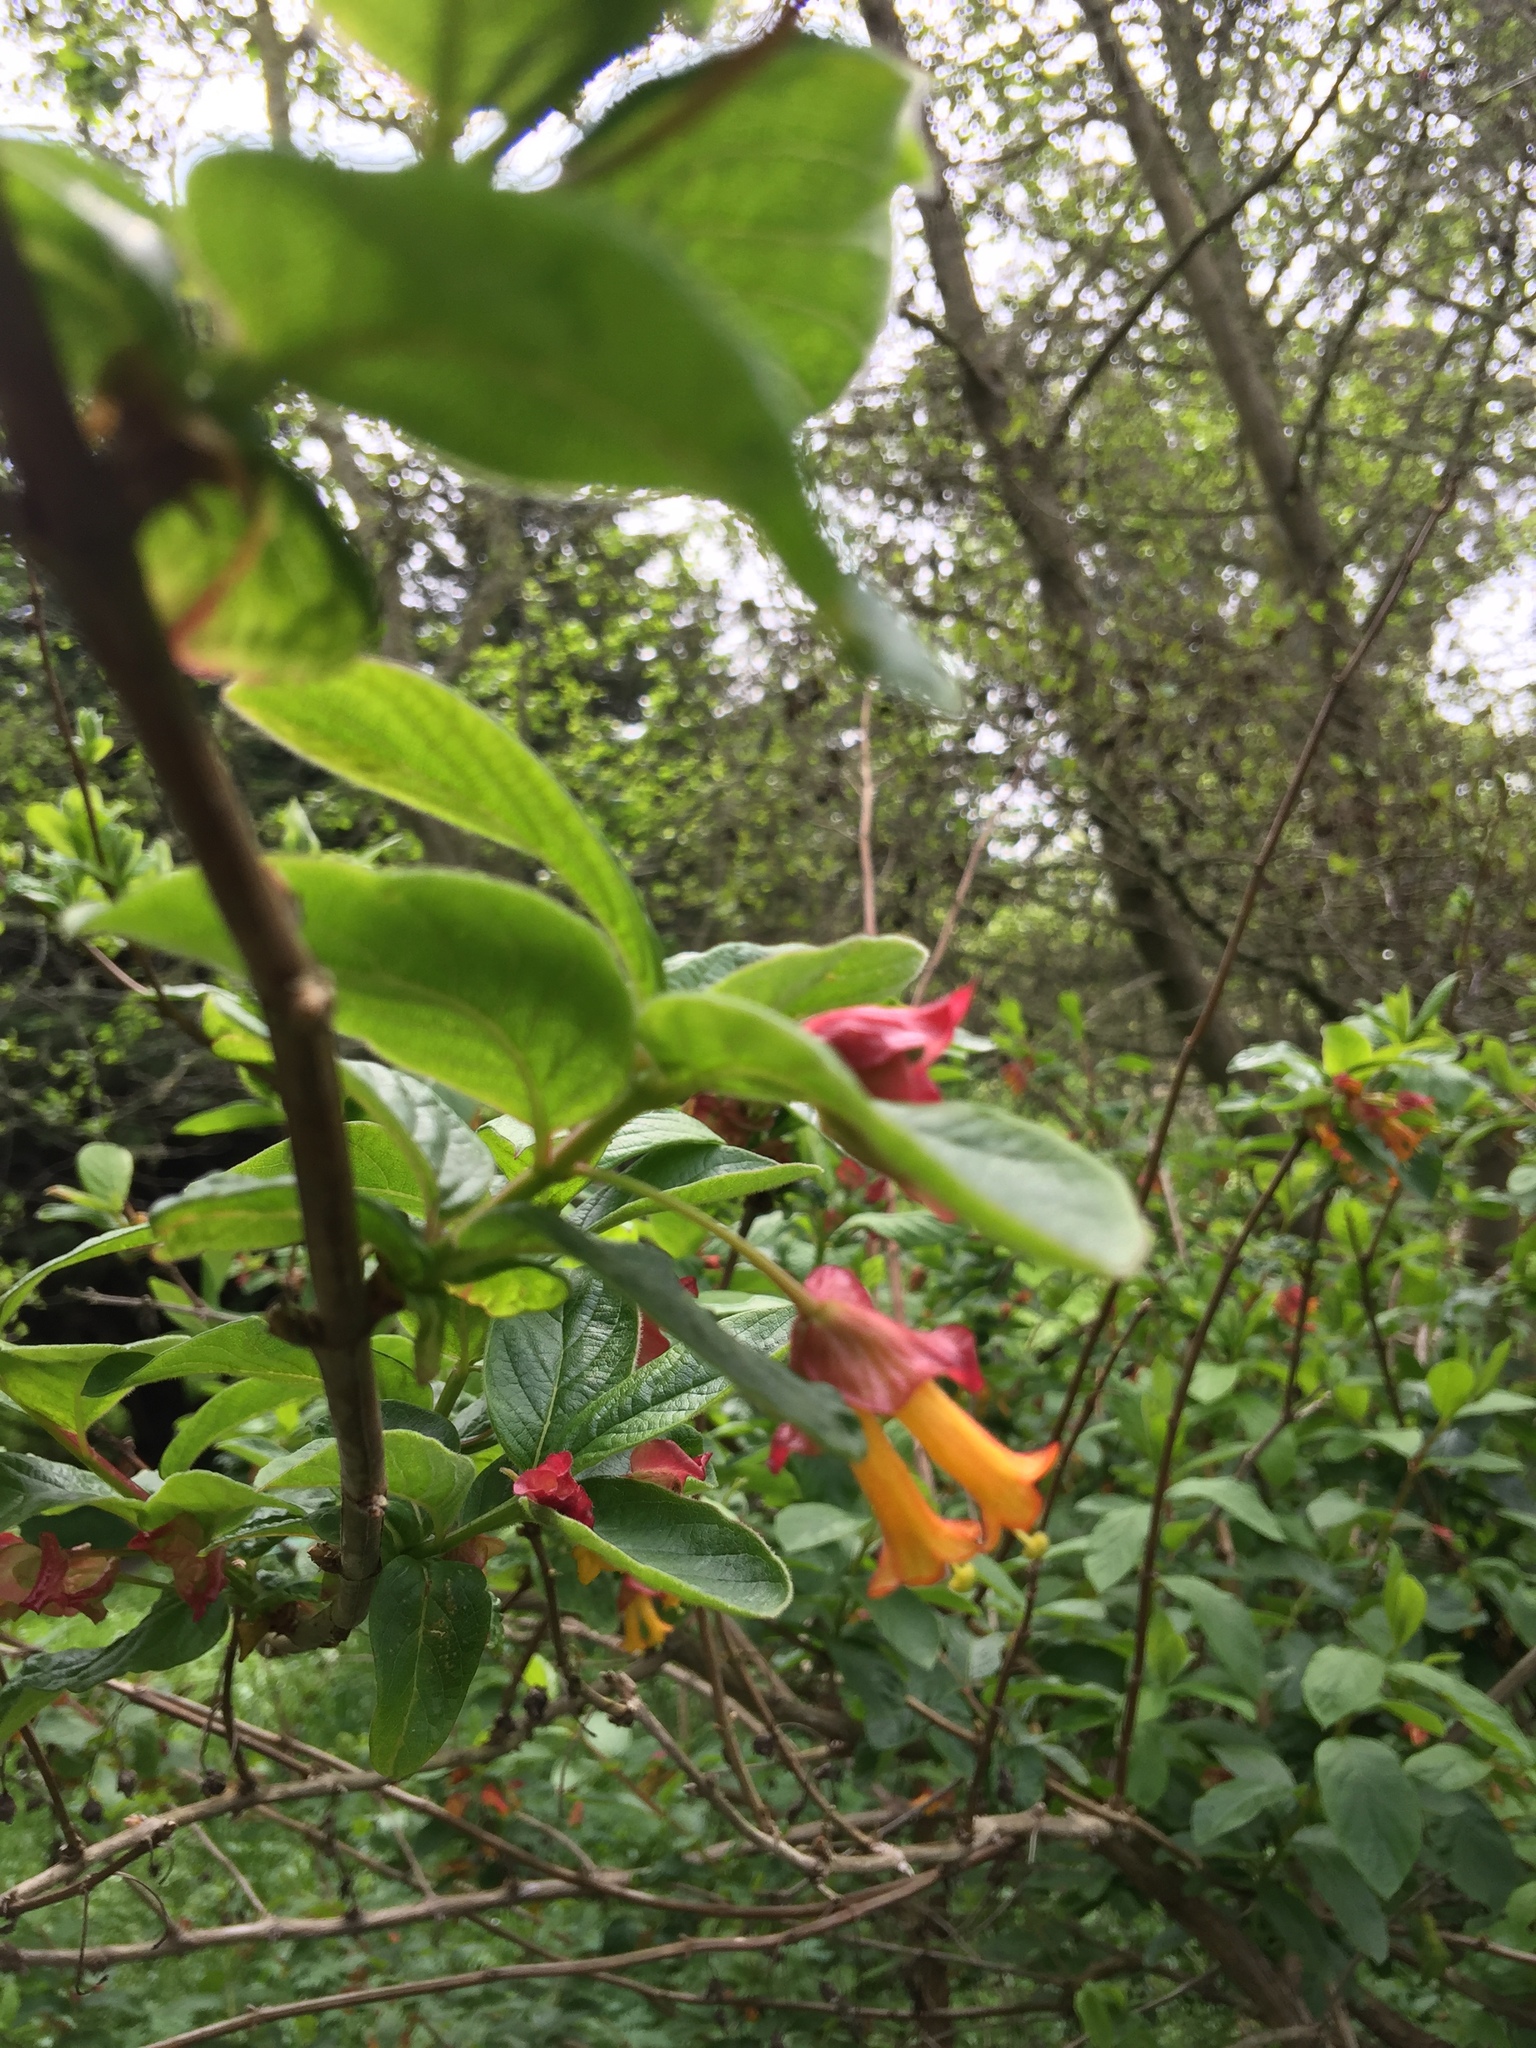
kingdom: Plantae
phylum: Tracheophyta
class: Magnoliopsida
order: Dipsacales
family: Caprifoliaceae
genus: Lonicera
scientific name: Lonicera involucrata
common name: Californian honeysuckle
